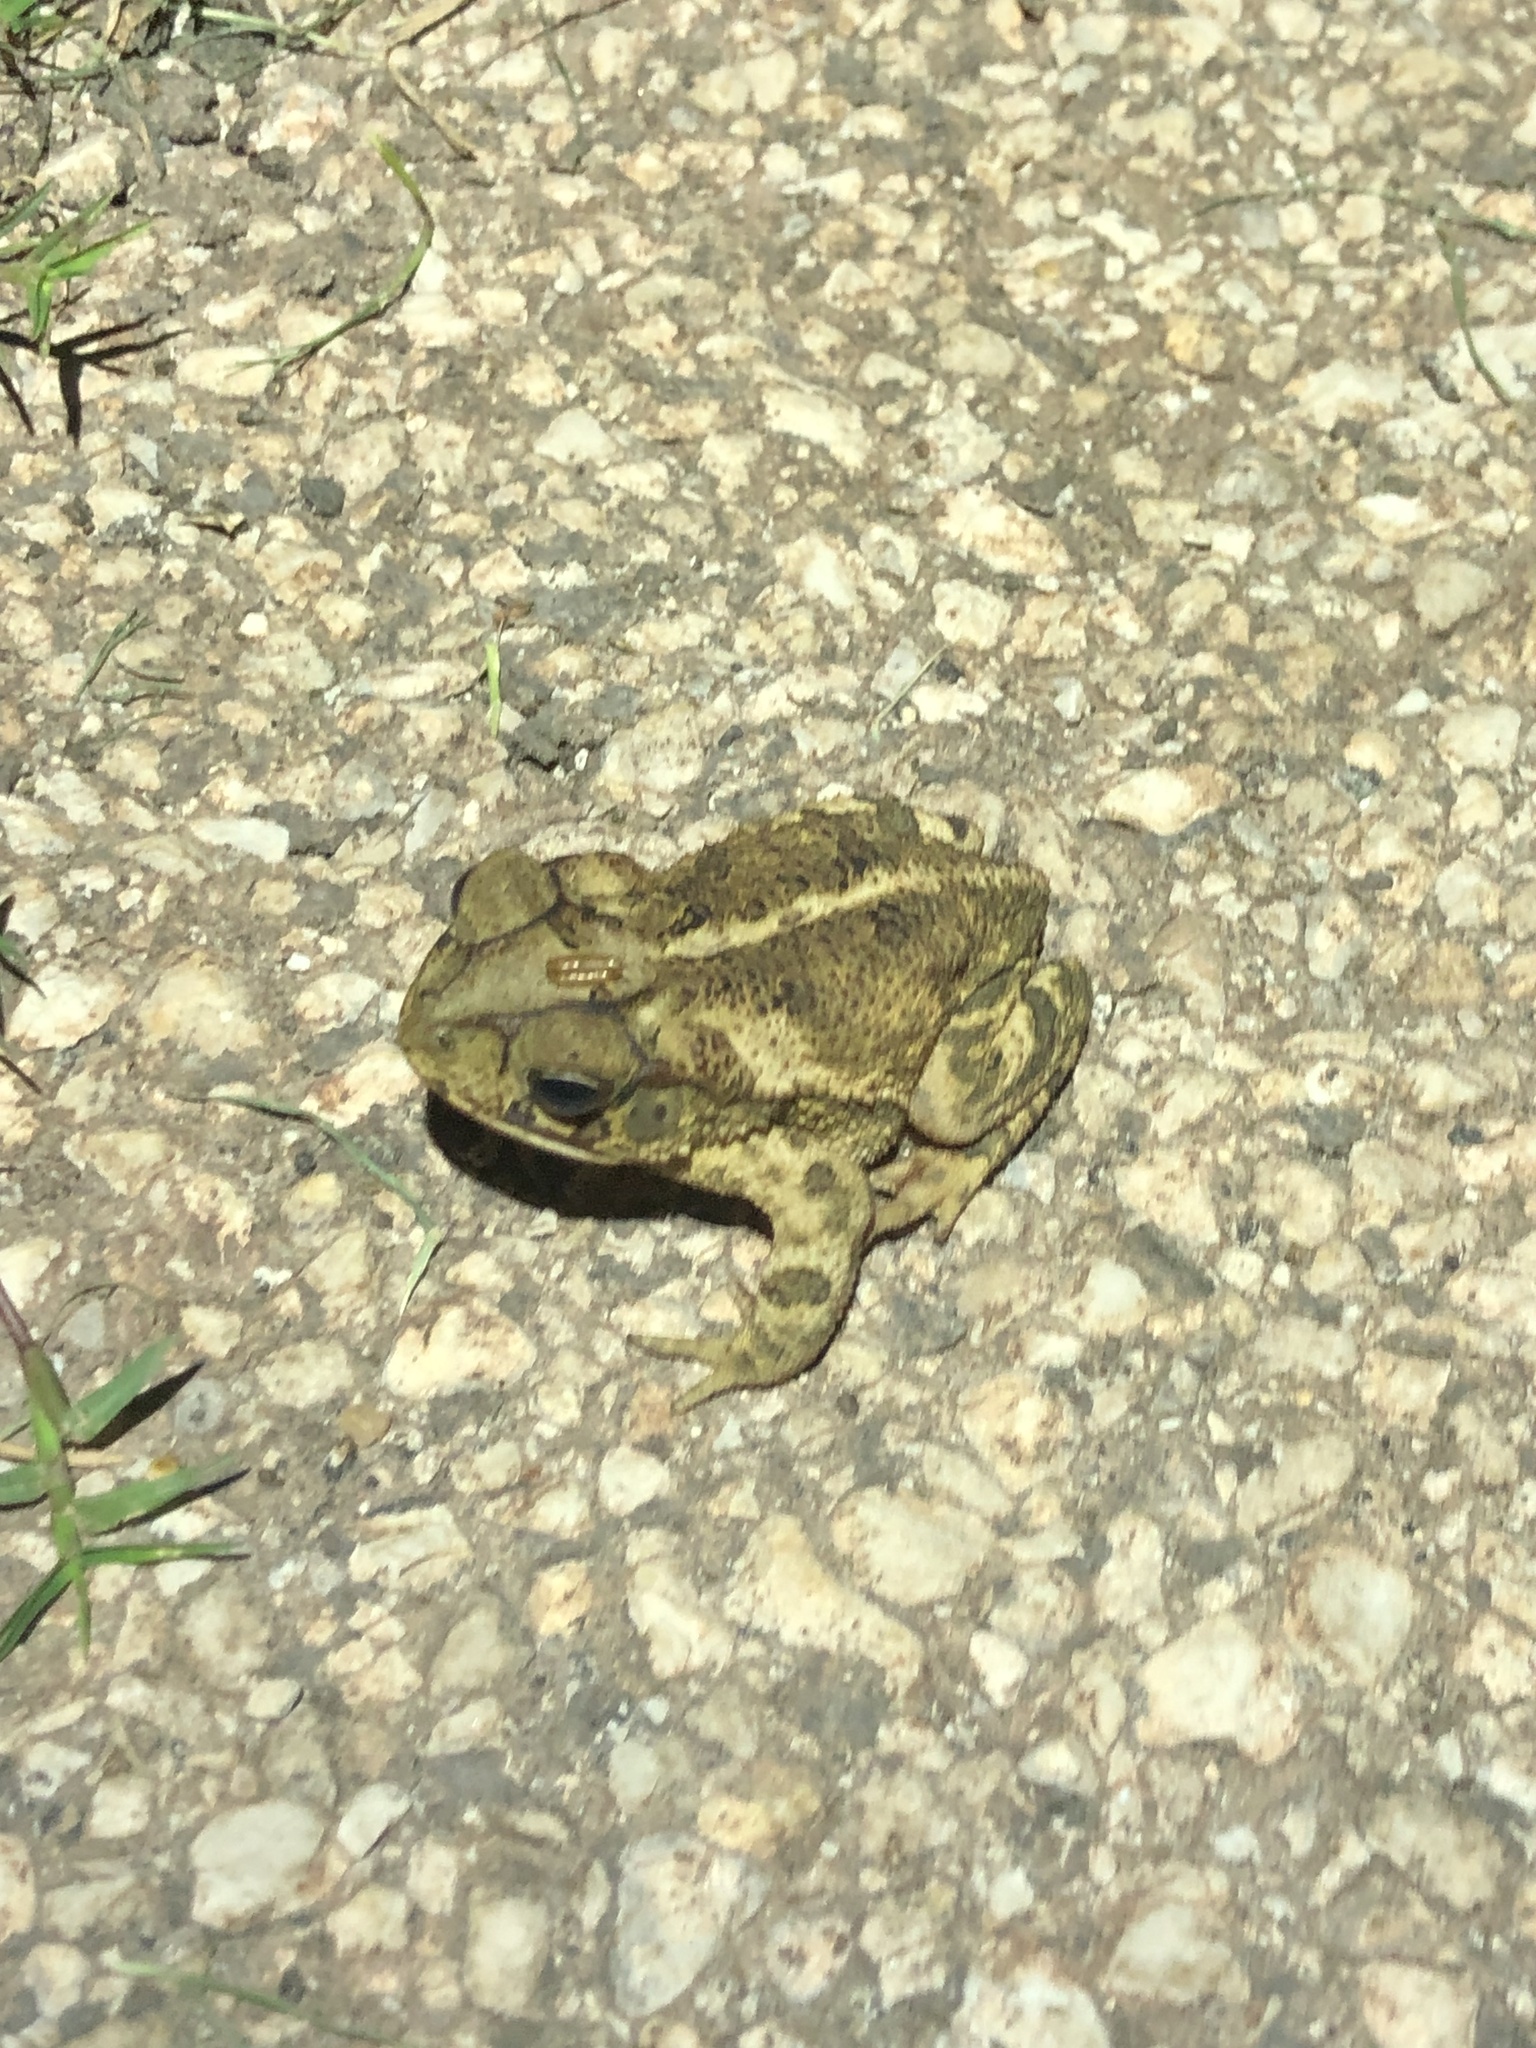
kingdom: Animalia
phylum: Chordata
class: Amphibia
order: Anura
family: Bufonidae
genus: Incilius
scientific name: Incilius nebulifer
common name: Gulf coast toad
